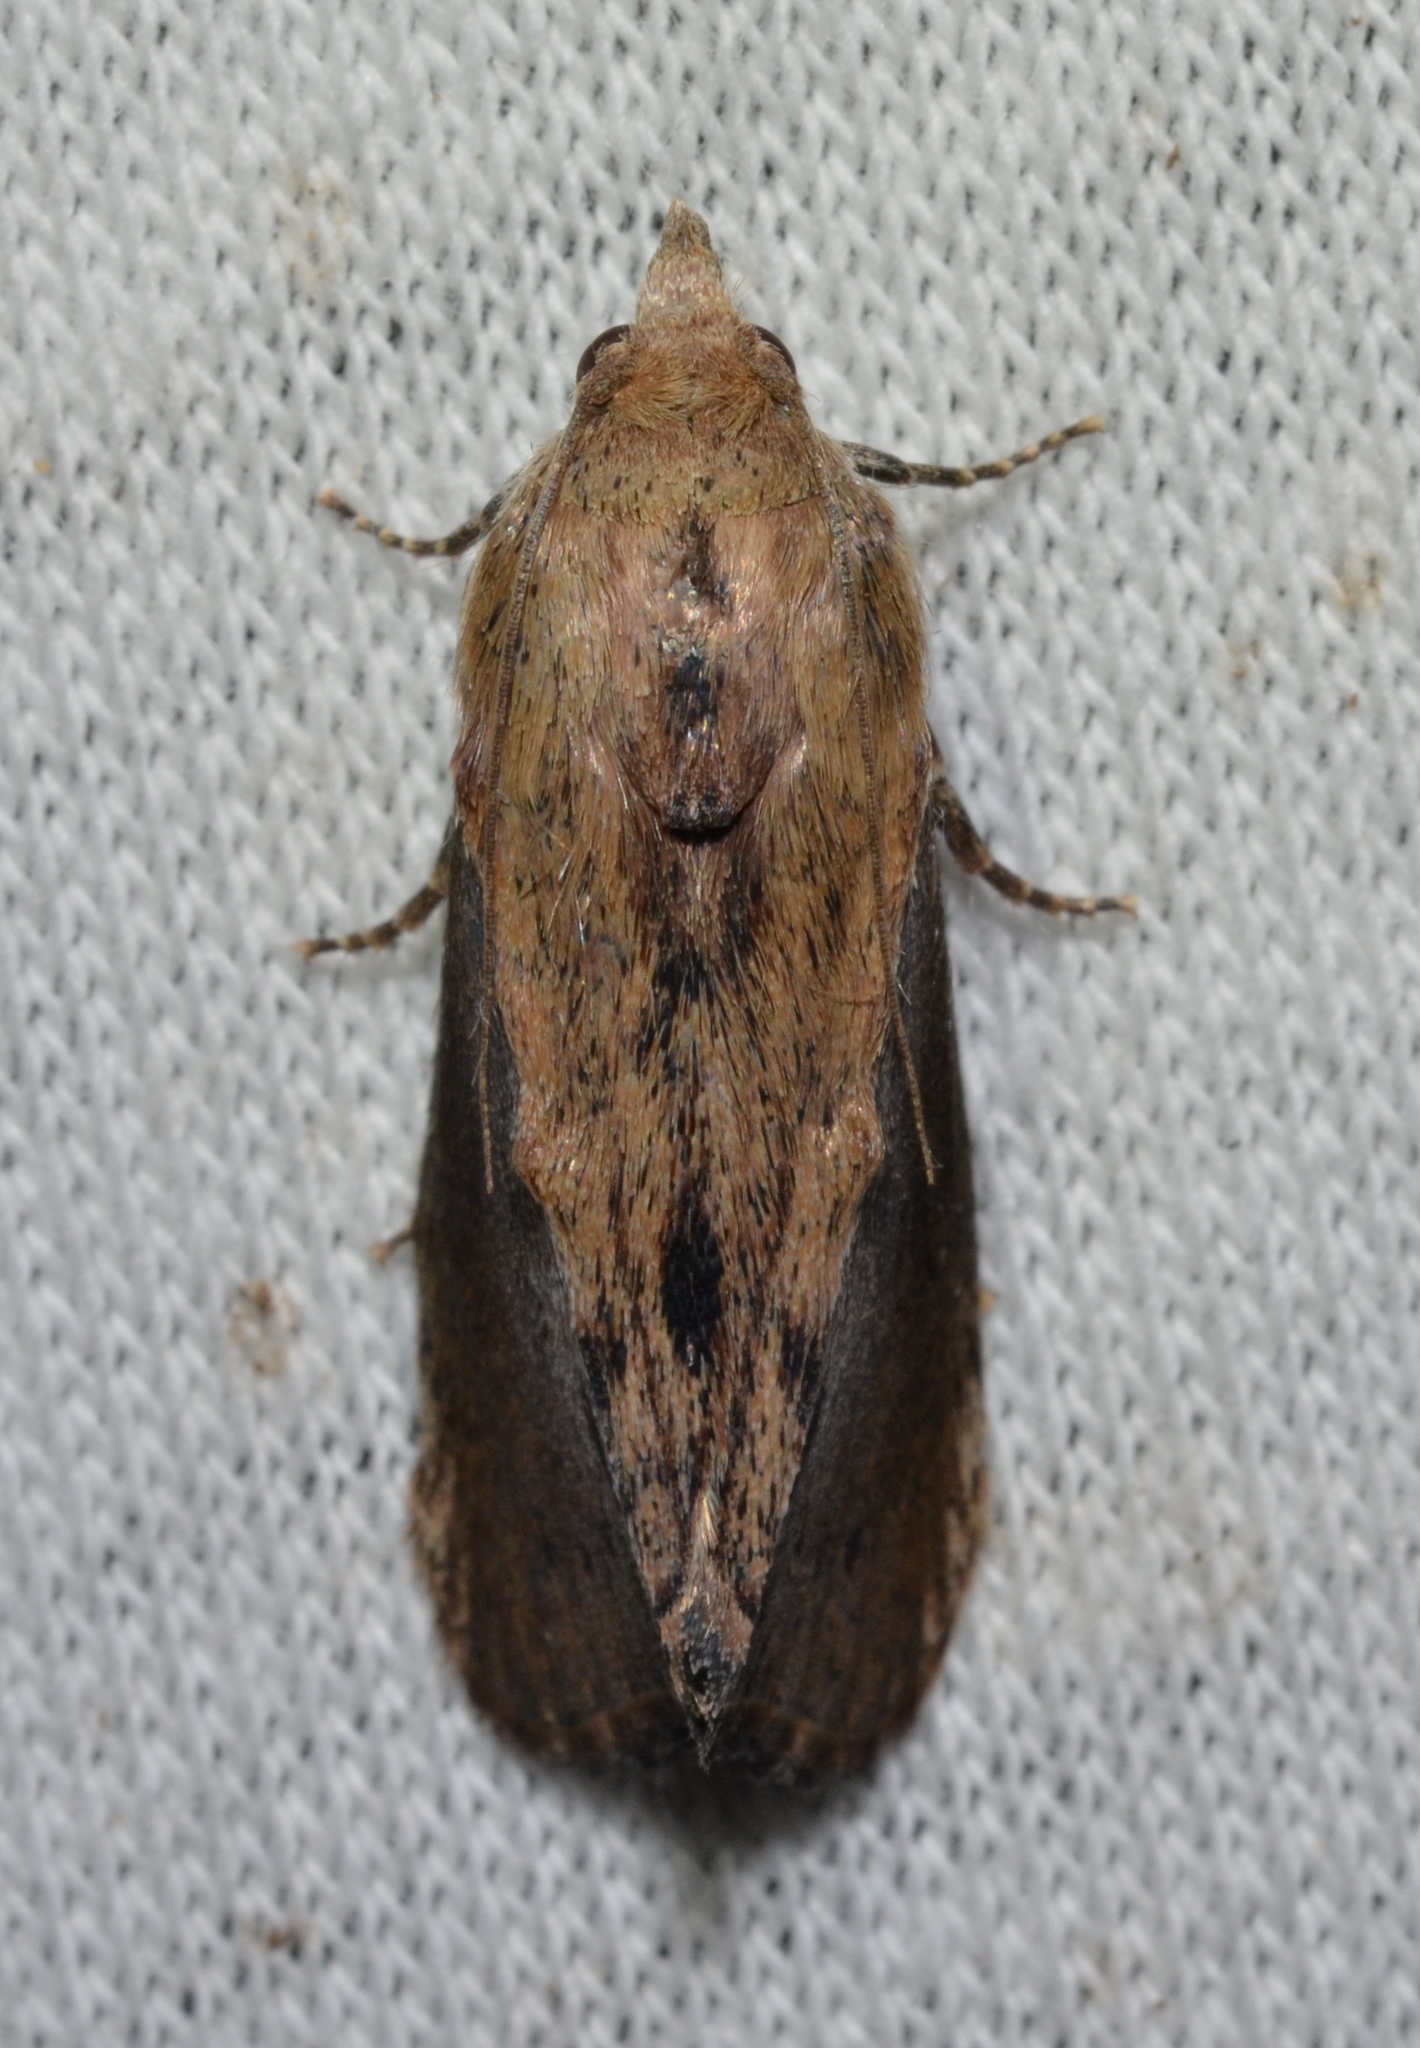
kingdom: Animalia
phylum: Arthropoda
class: Insecta
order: Lepidoptera
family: Pyralidae
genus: Galleria
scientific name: Galleria mellonella
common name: Greater wax moth
